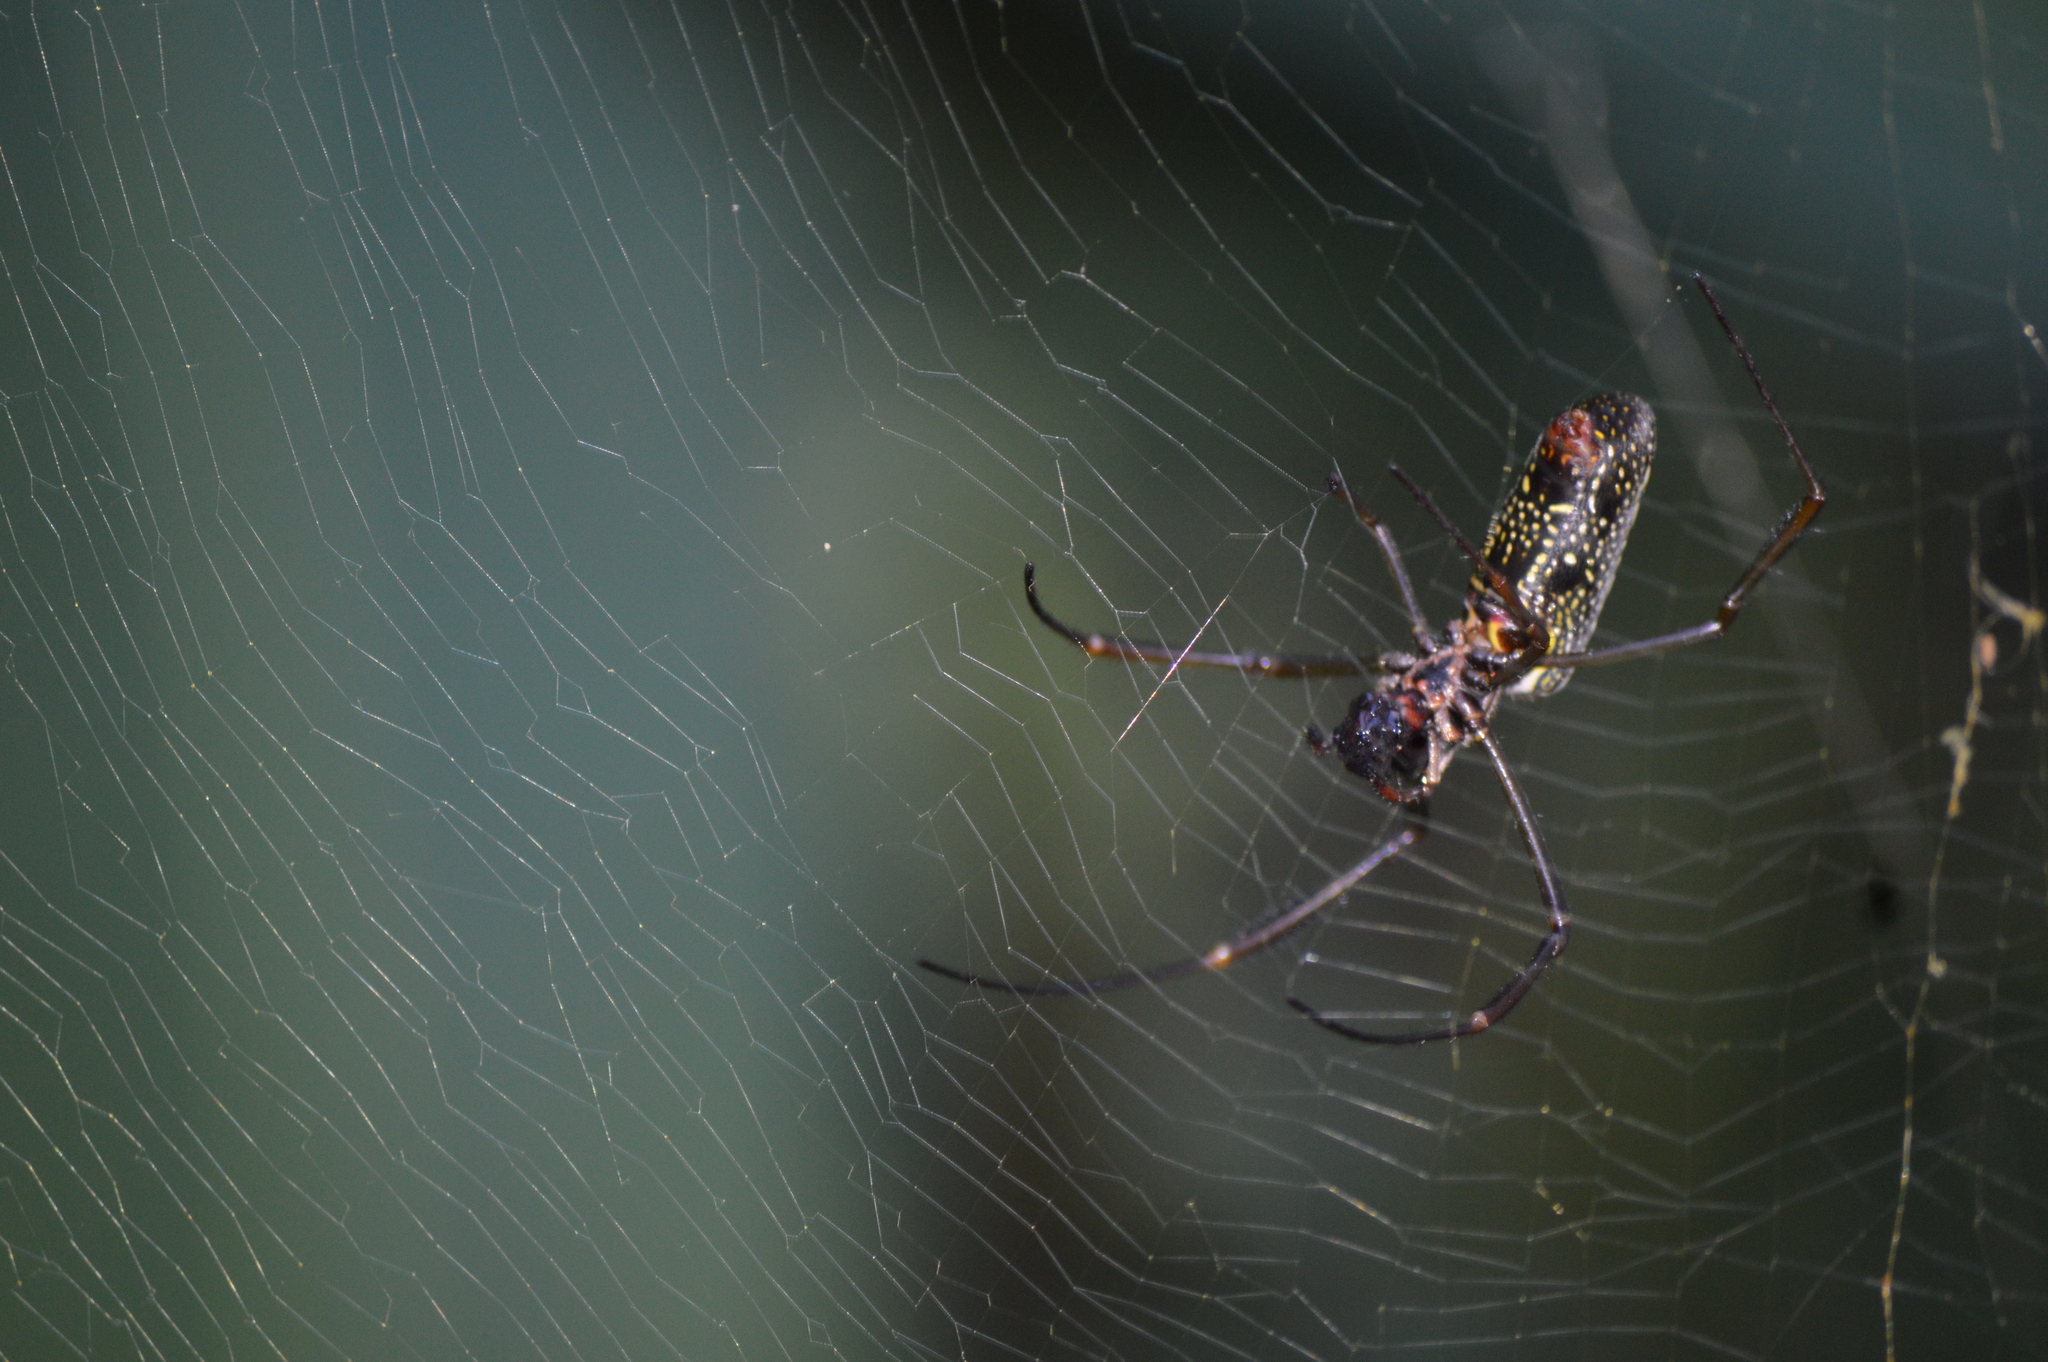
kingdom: Animalia
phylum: Arthropoda
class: Arachnida
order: Araneae
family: Araneidae
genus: Trichonephila
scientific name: Trichonephila clavipes
